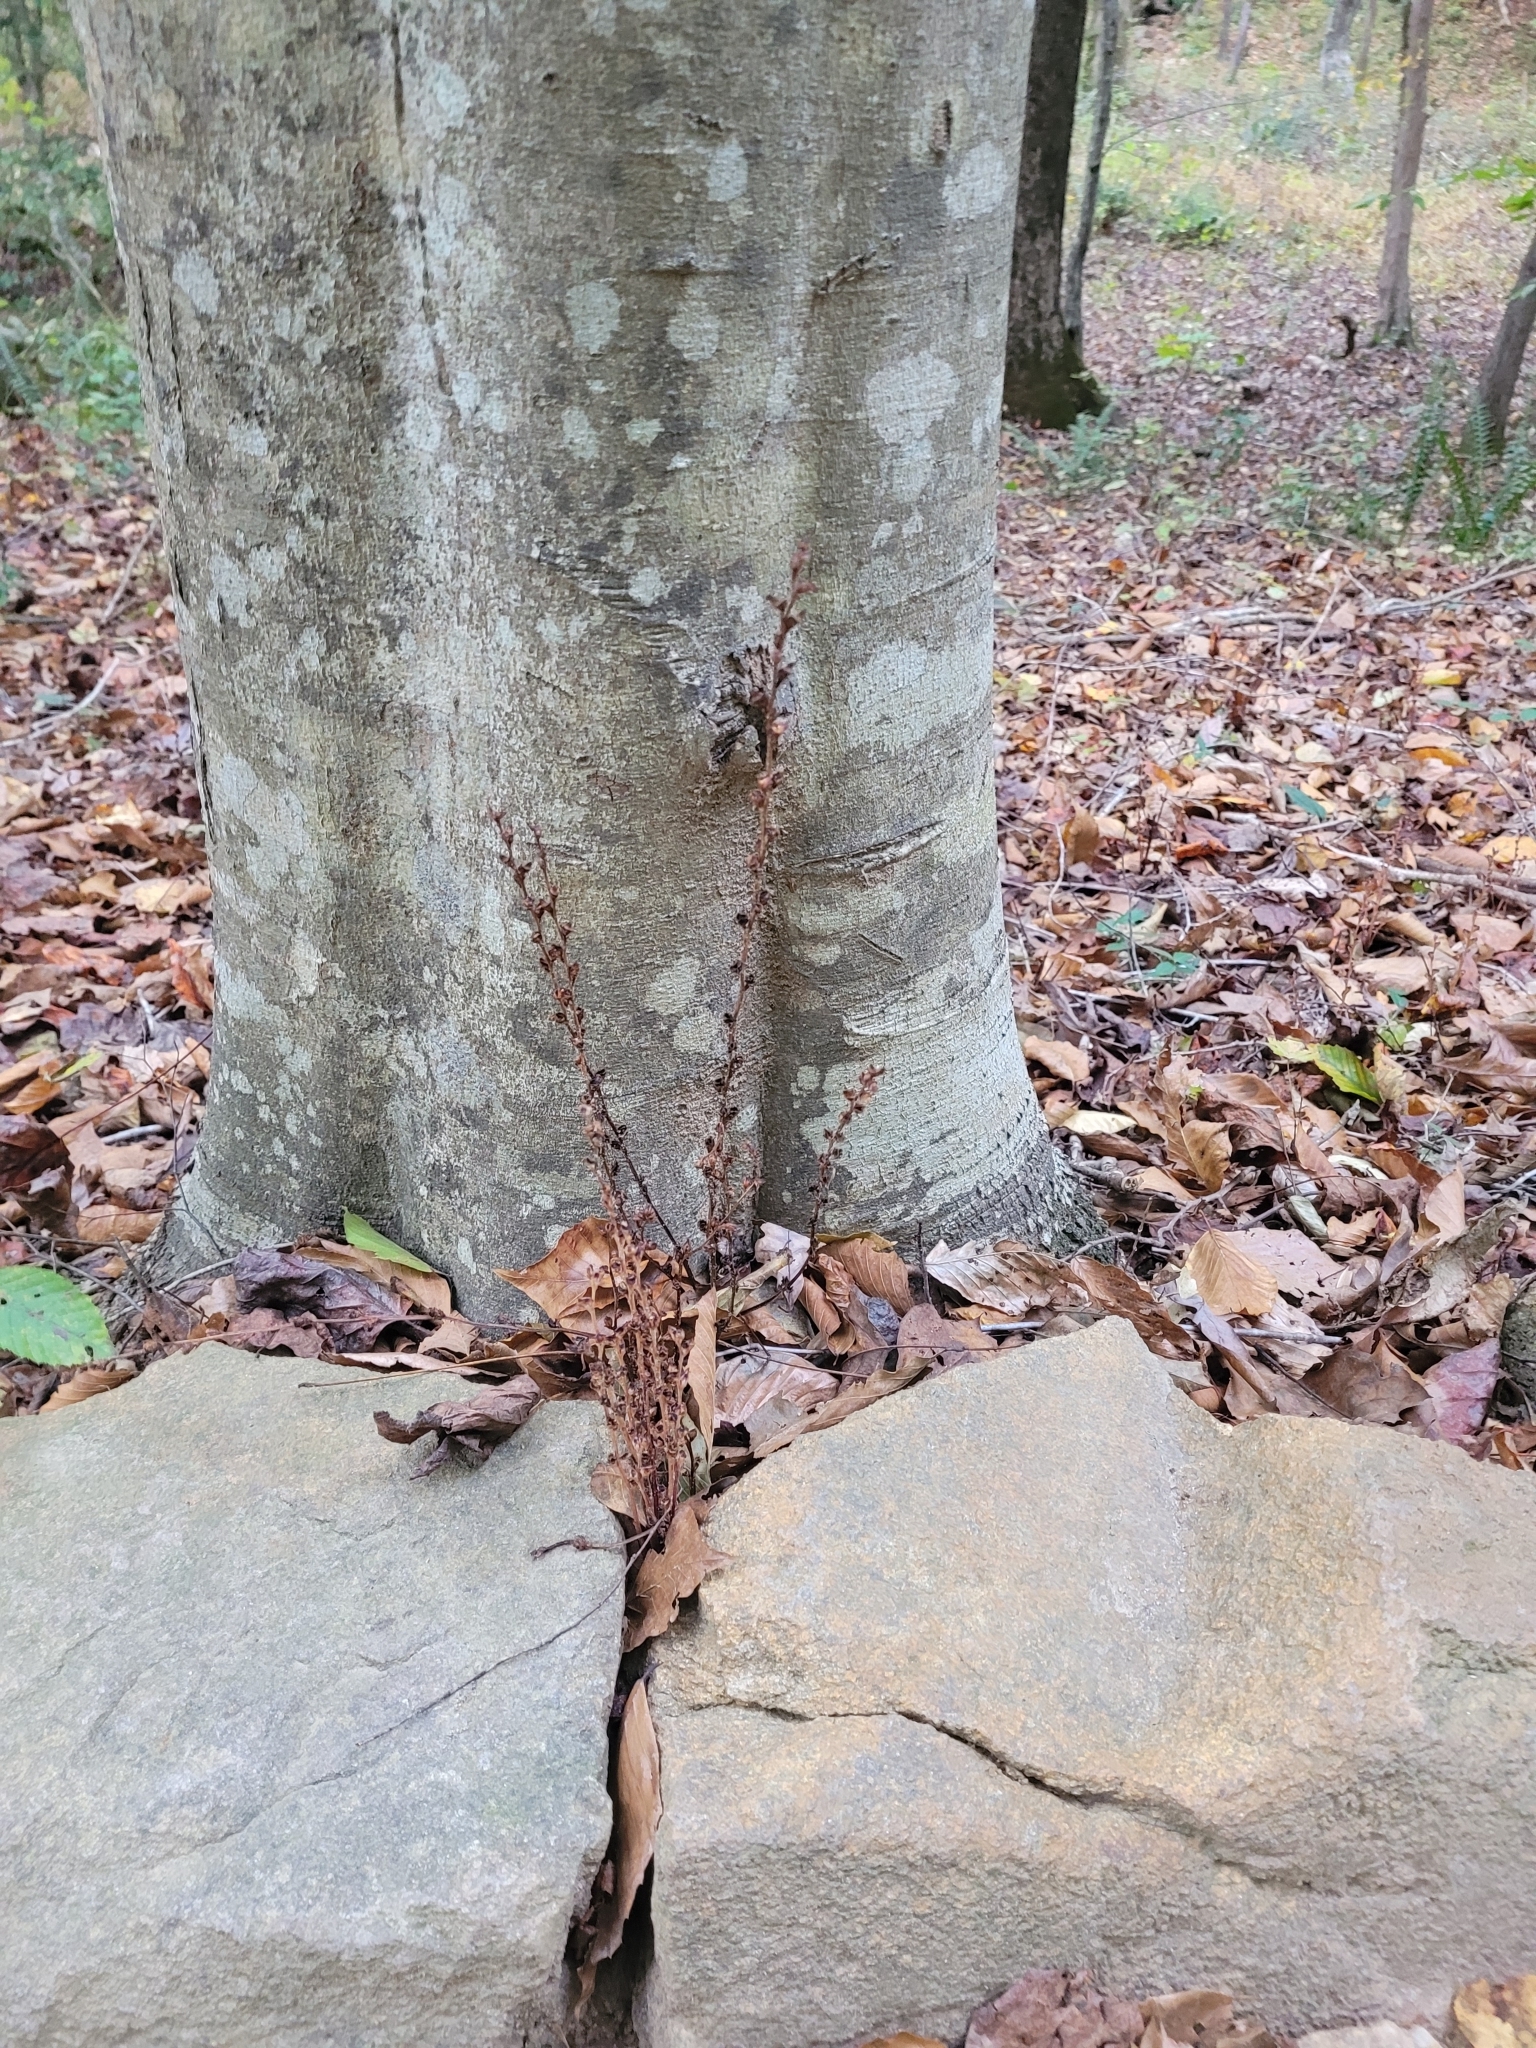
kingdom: Plantae
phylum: Tracheophyta
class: Magnoliopsida
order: Lamiales
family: Orobanchaceae
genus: Epifagus
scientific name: Epifagus virginiana
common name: Beechdrops
